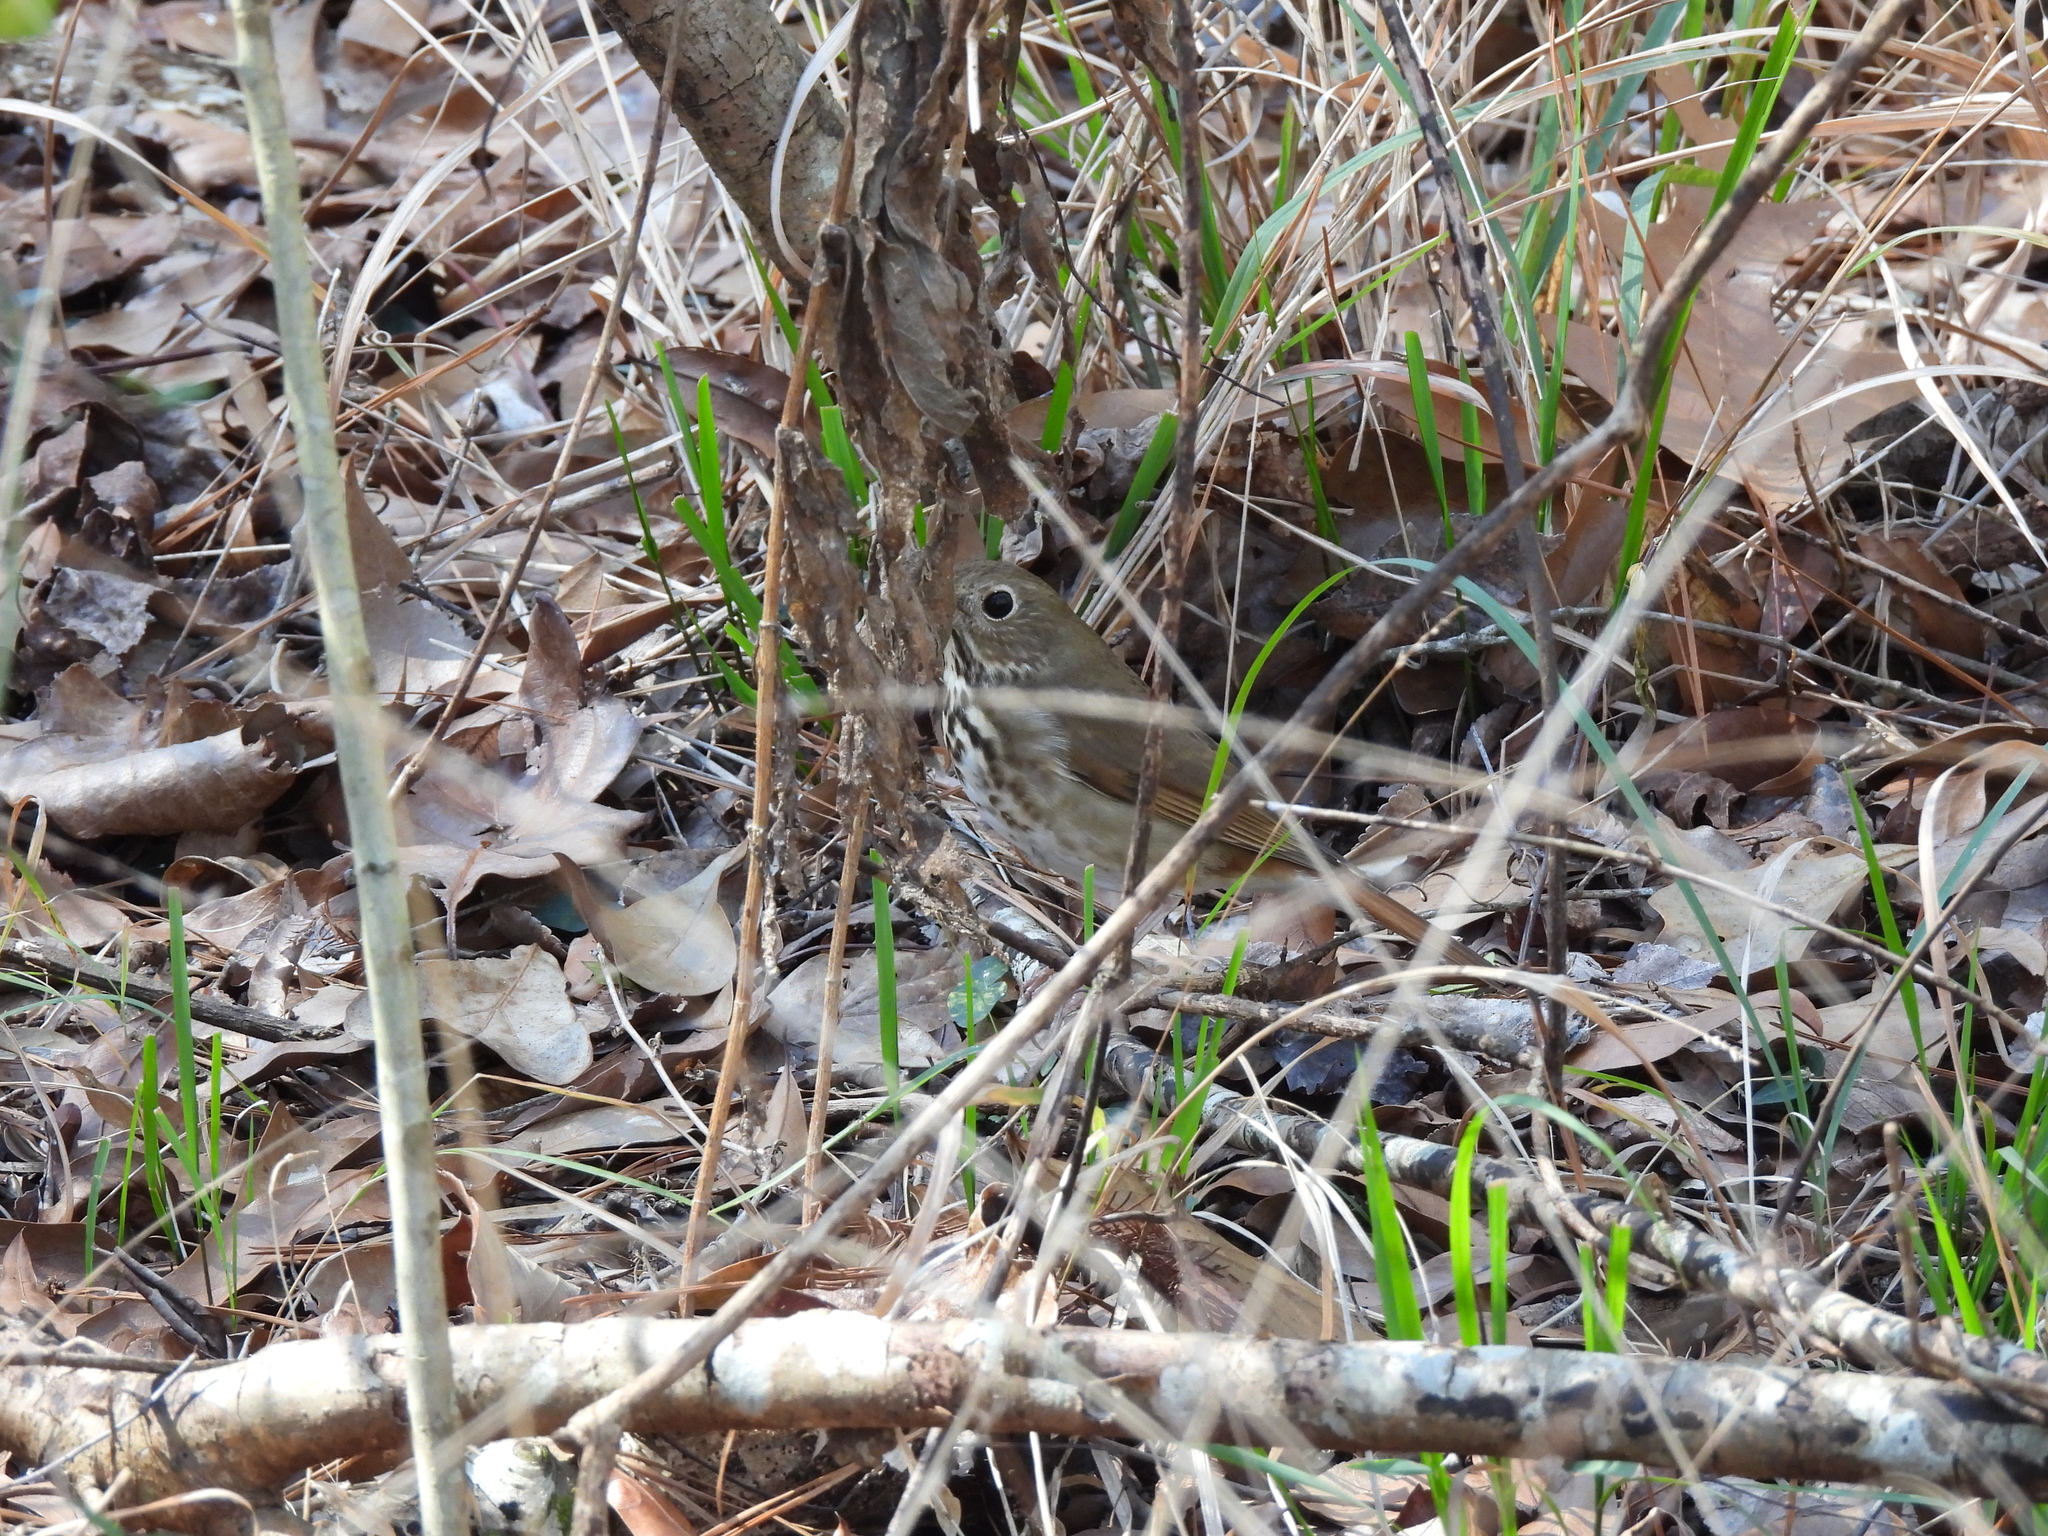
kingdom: Animalia
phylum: Chordata
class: Aves
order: Passeriformes
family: Turdidae
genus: Catharus
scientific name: Catharus guttatus
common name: Hermit thrush
